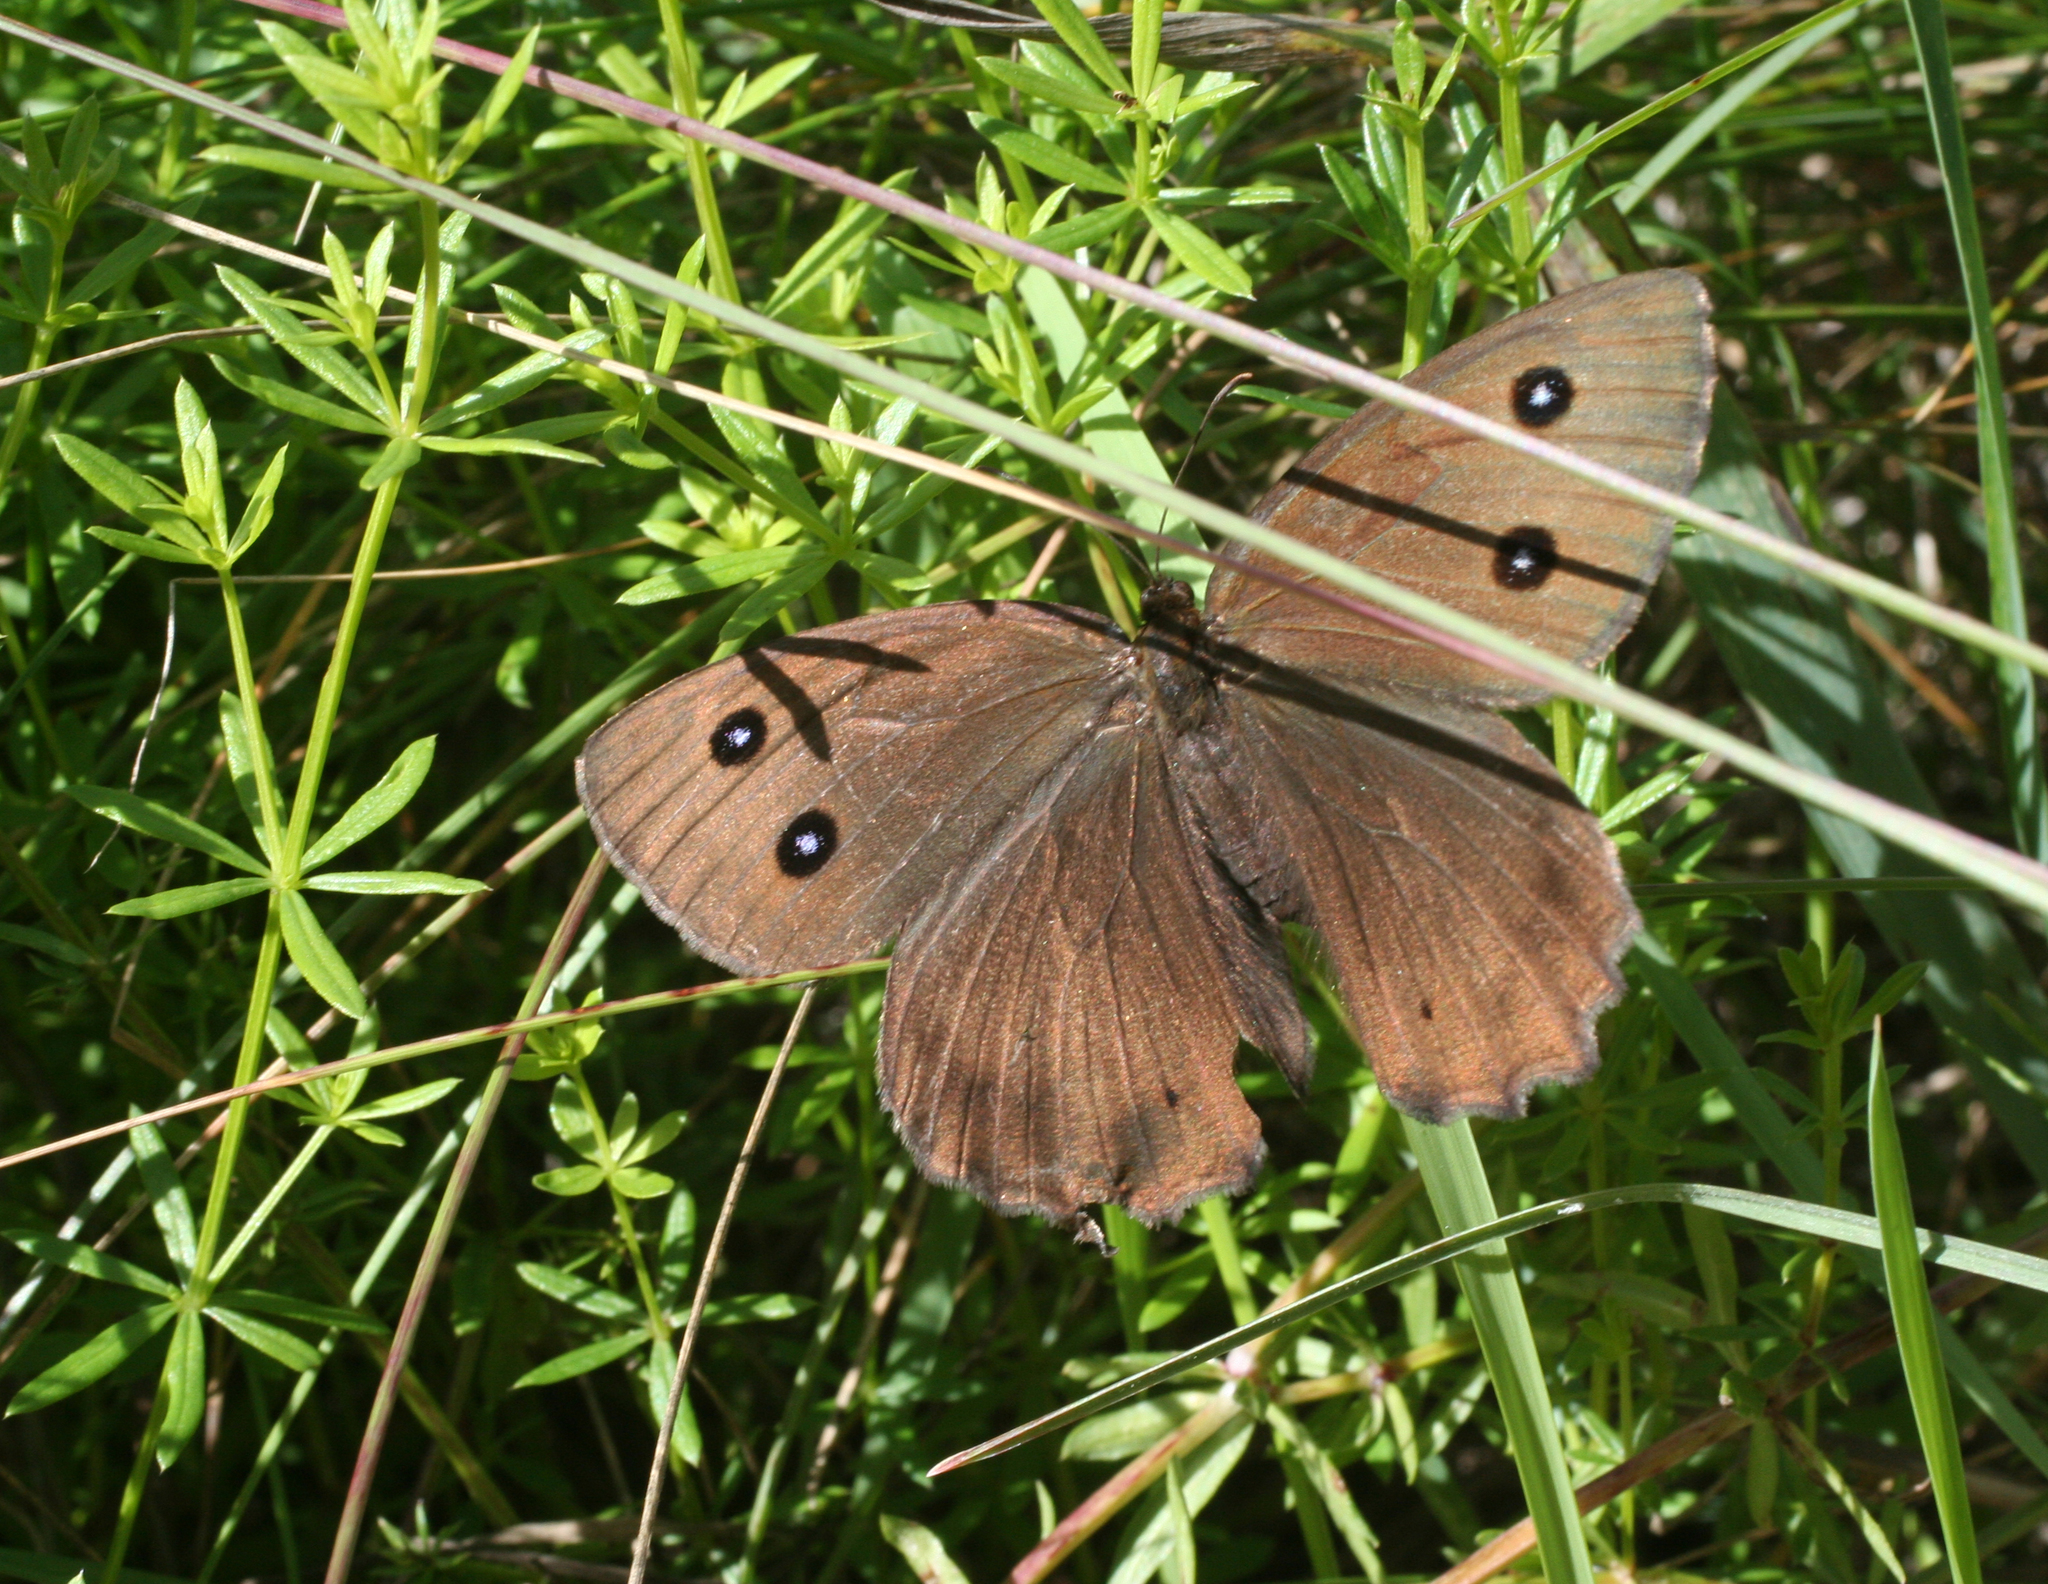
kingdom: Animalia
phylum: Arthropoda
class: Insecta
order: Lepidoptera
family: Nymphalidae
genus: Minois
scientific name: Minois dryas
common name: Dryad
